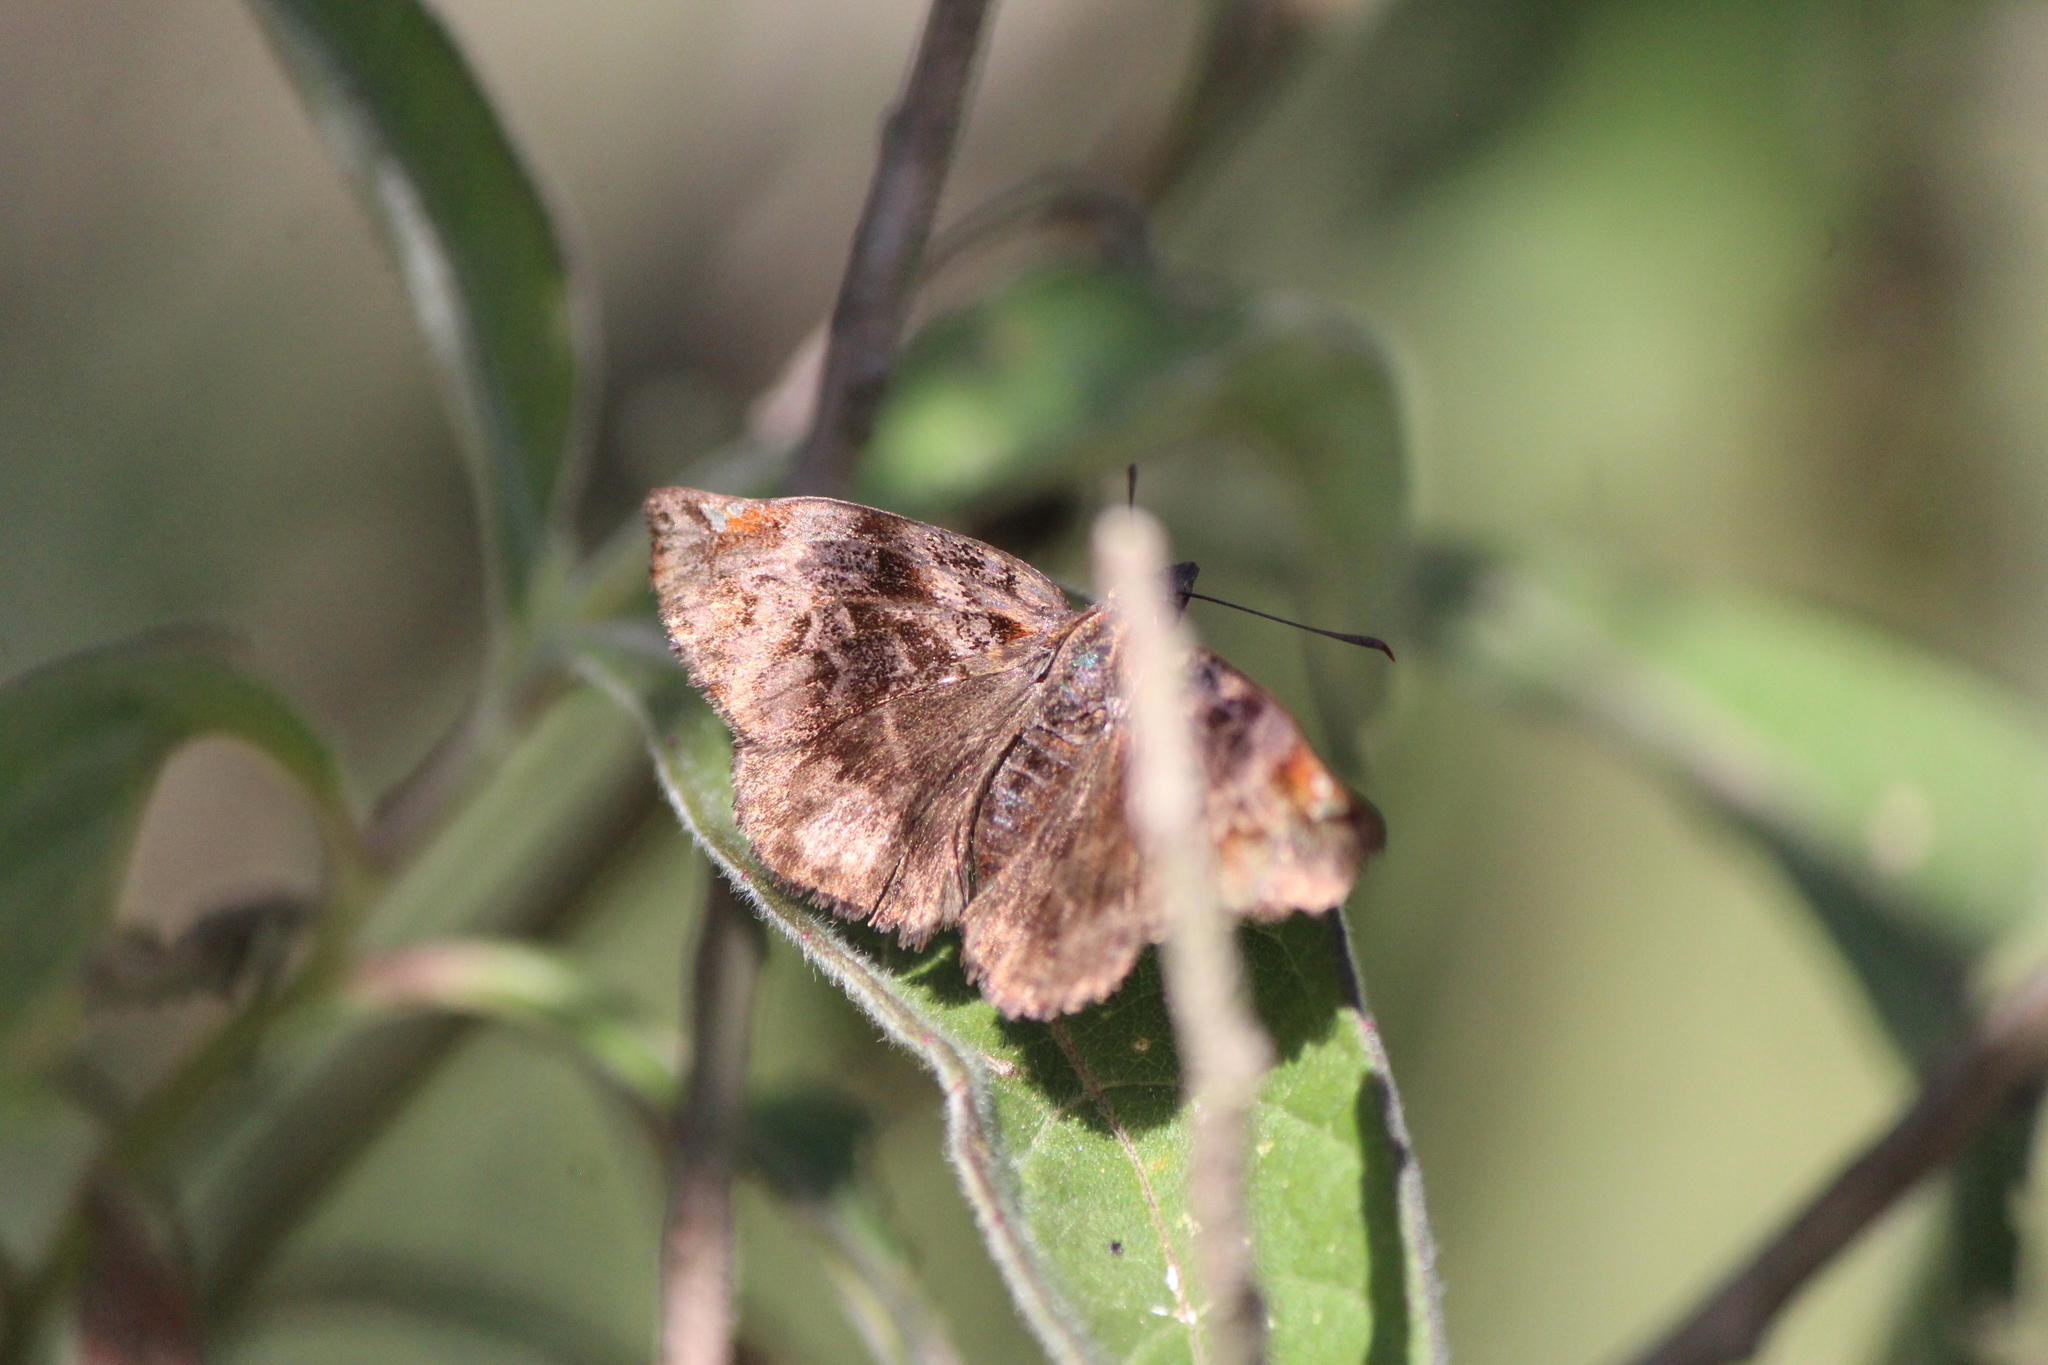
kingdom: Animalia
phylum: Arthropoda
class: Insecta
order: Lepidoptera
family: Hesperiidae
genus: Noctuana
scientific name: Noctuana stator
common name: Red-studded skipper
